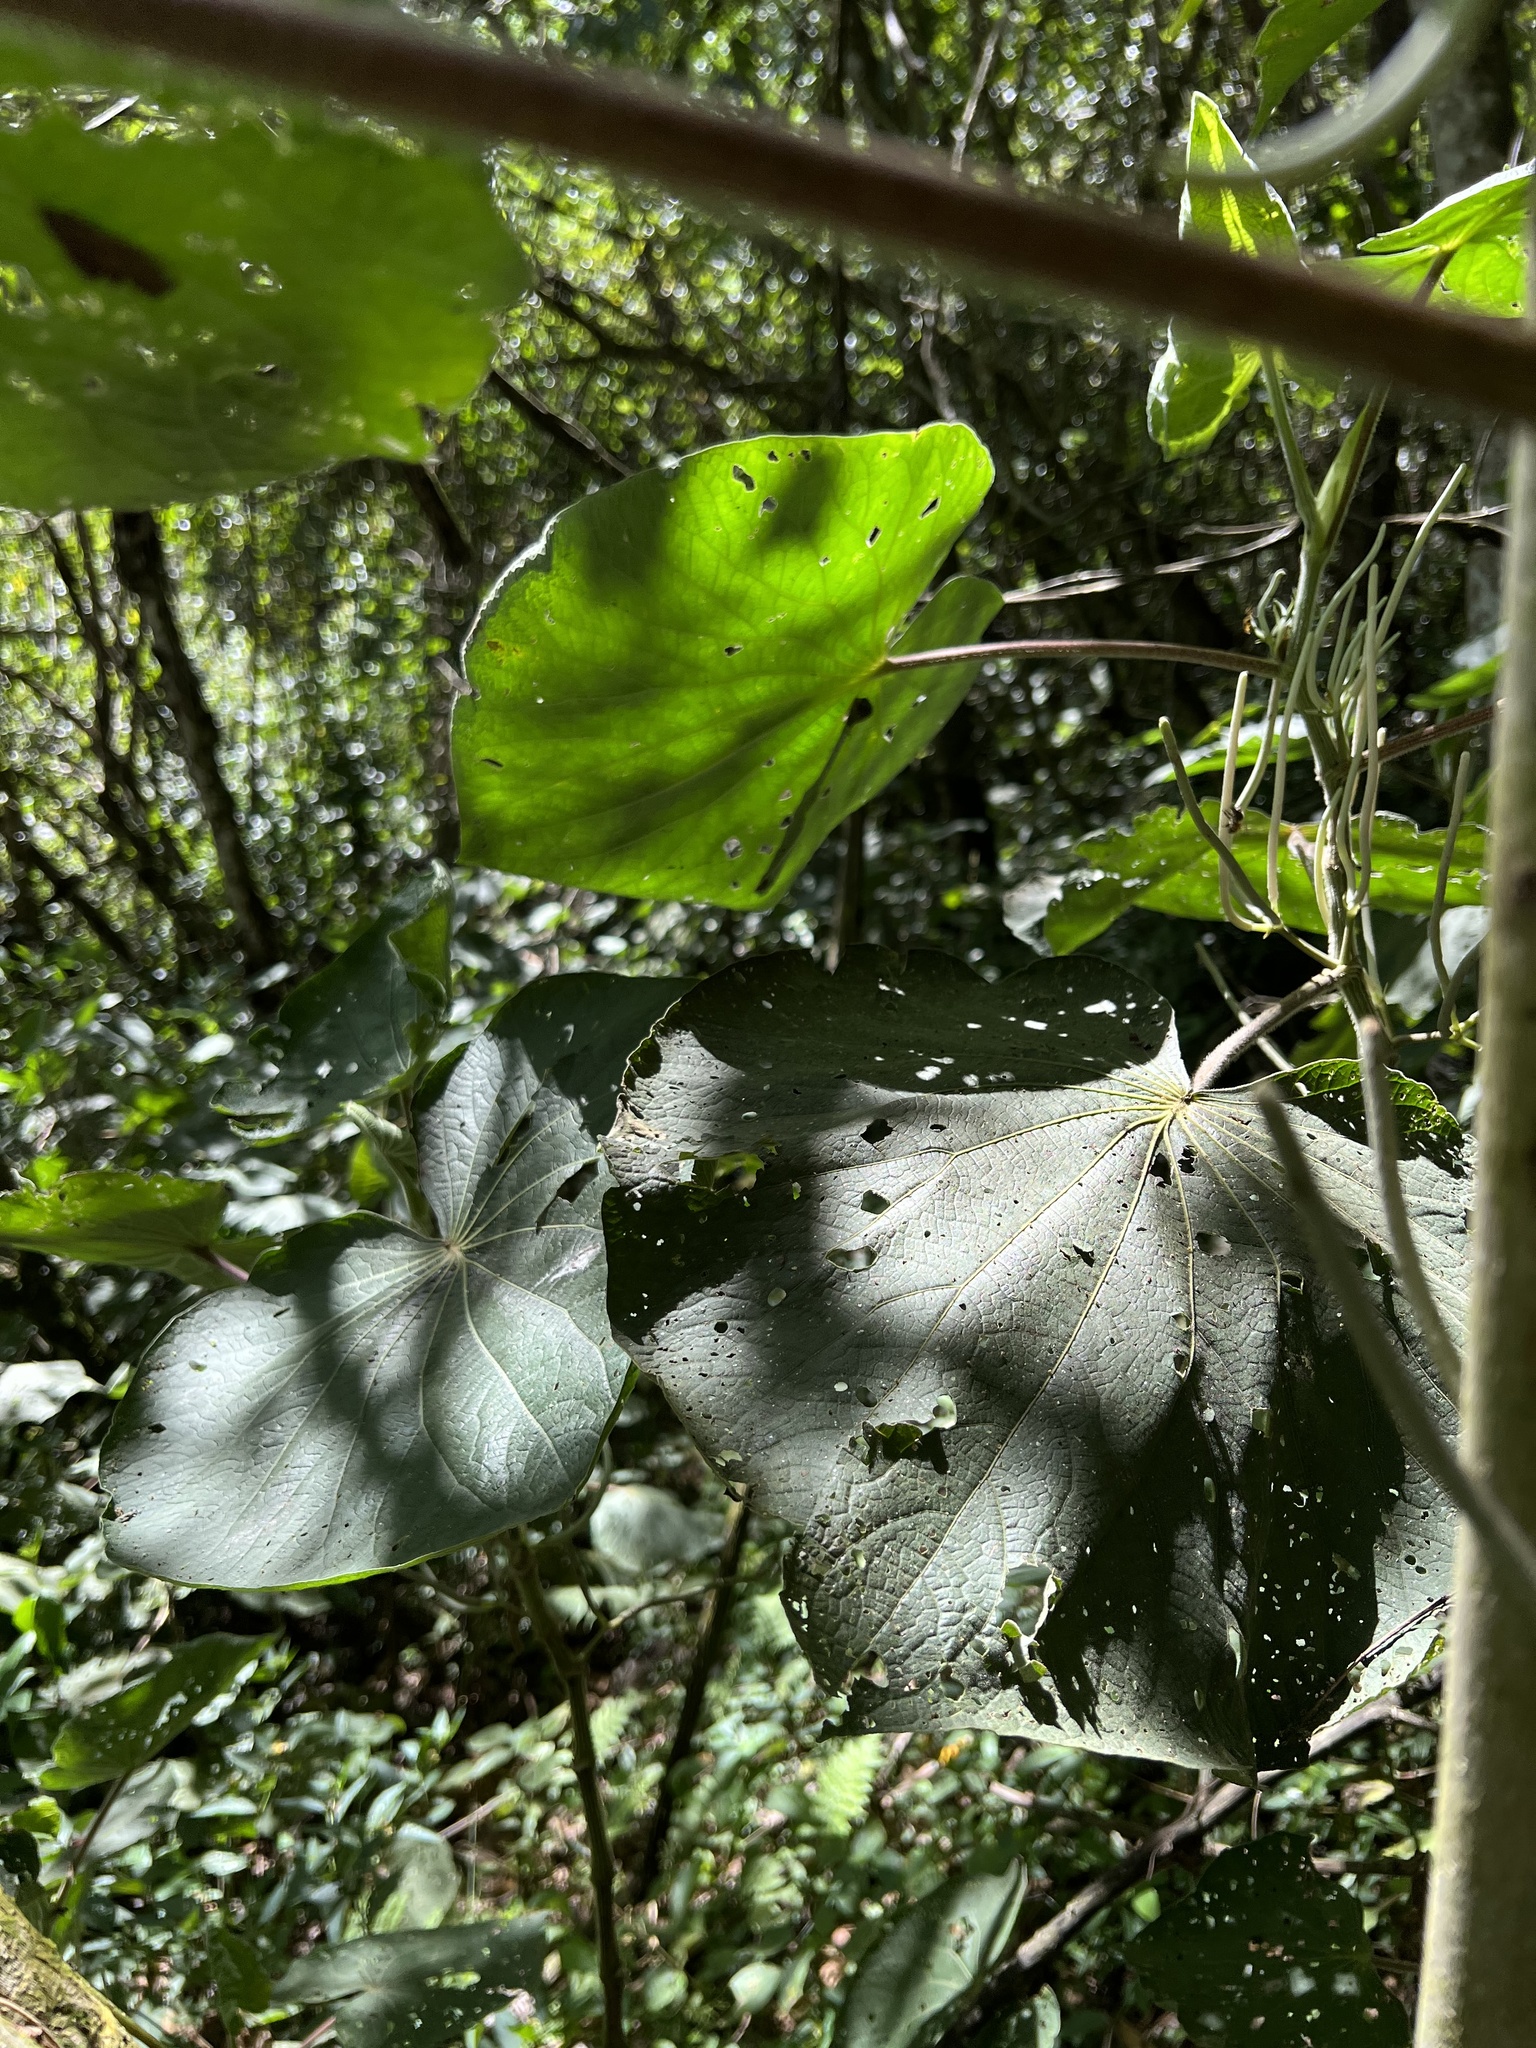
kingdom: Plantae
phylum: Tracheophyta
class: Magnoliopsida
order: Piperales
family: Piperaceae
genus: Piper
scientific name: Piper umbellatum
